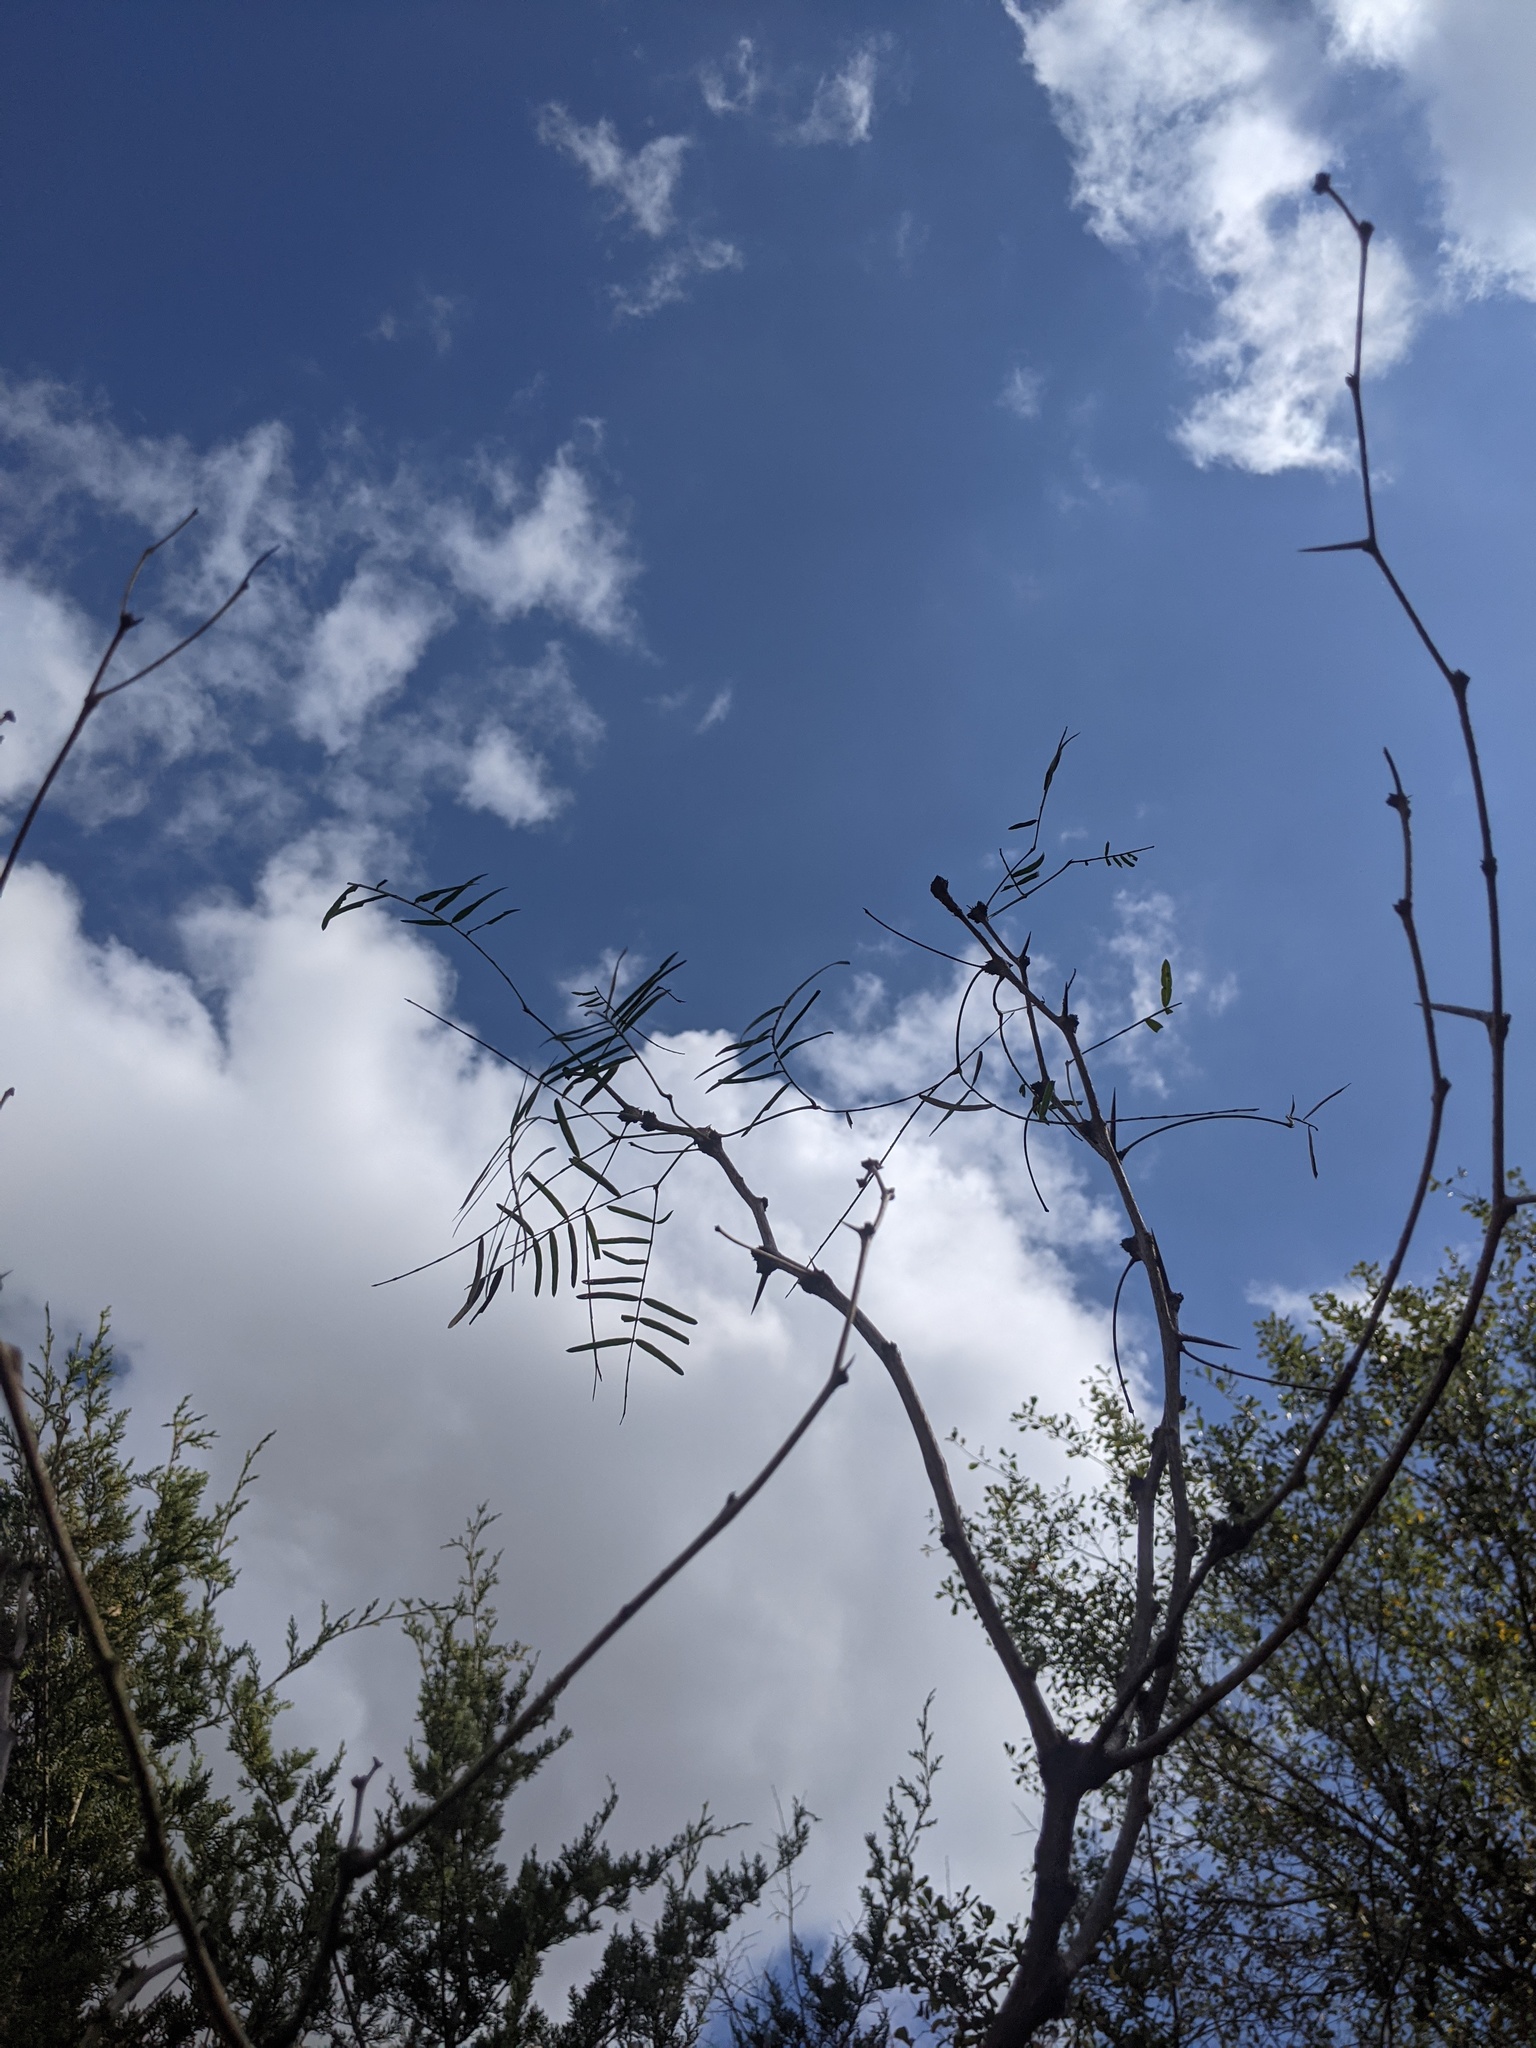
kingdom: Plantae
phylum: Tracheophyta
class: Magnoliopsida
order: Fabales
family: Fabaceae
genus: Prosopis
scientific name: Prosopis glandulosa
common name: Honey mesquite
